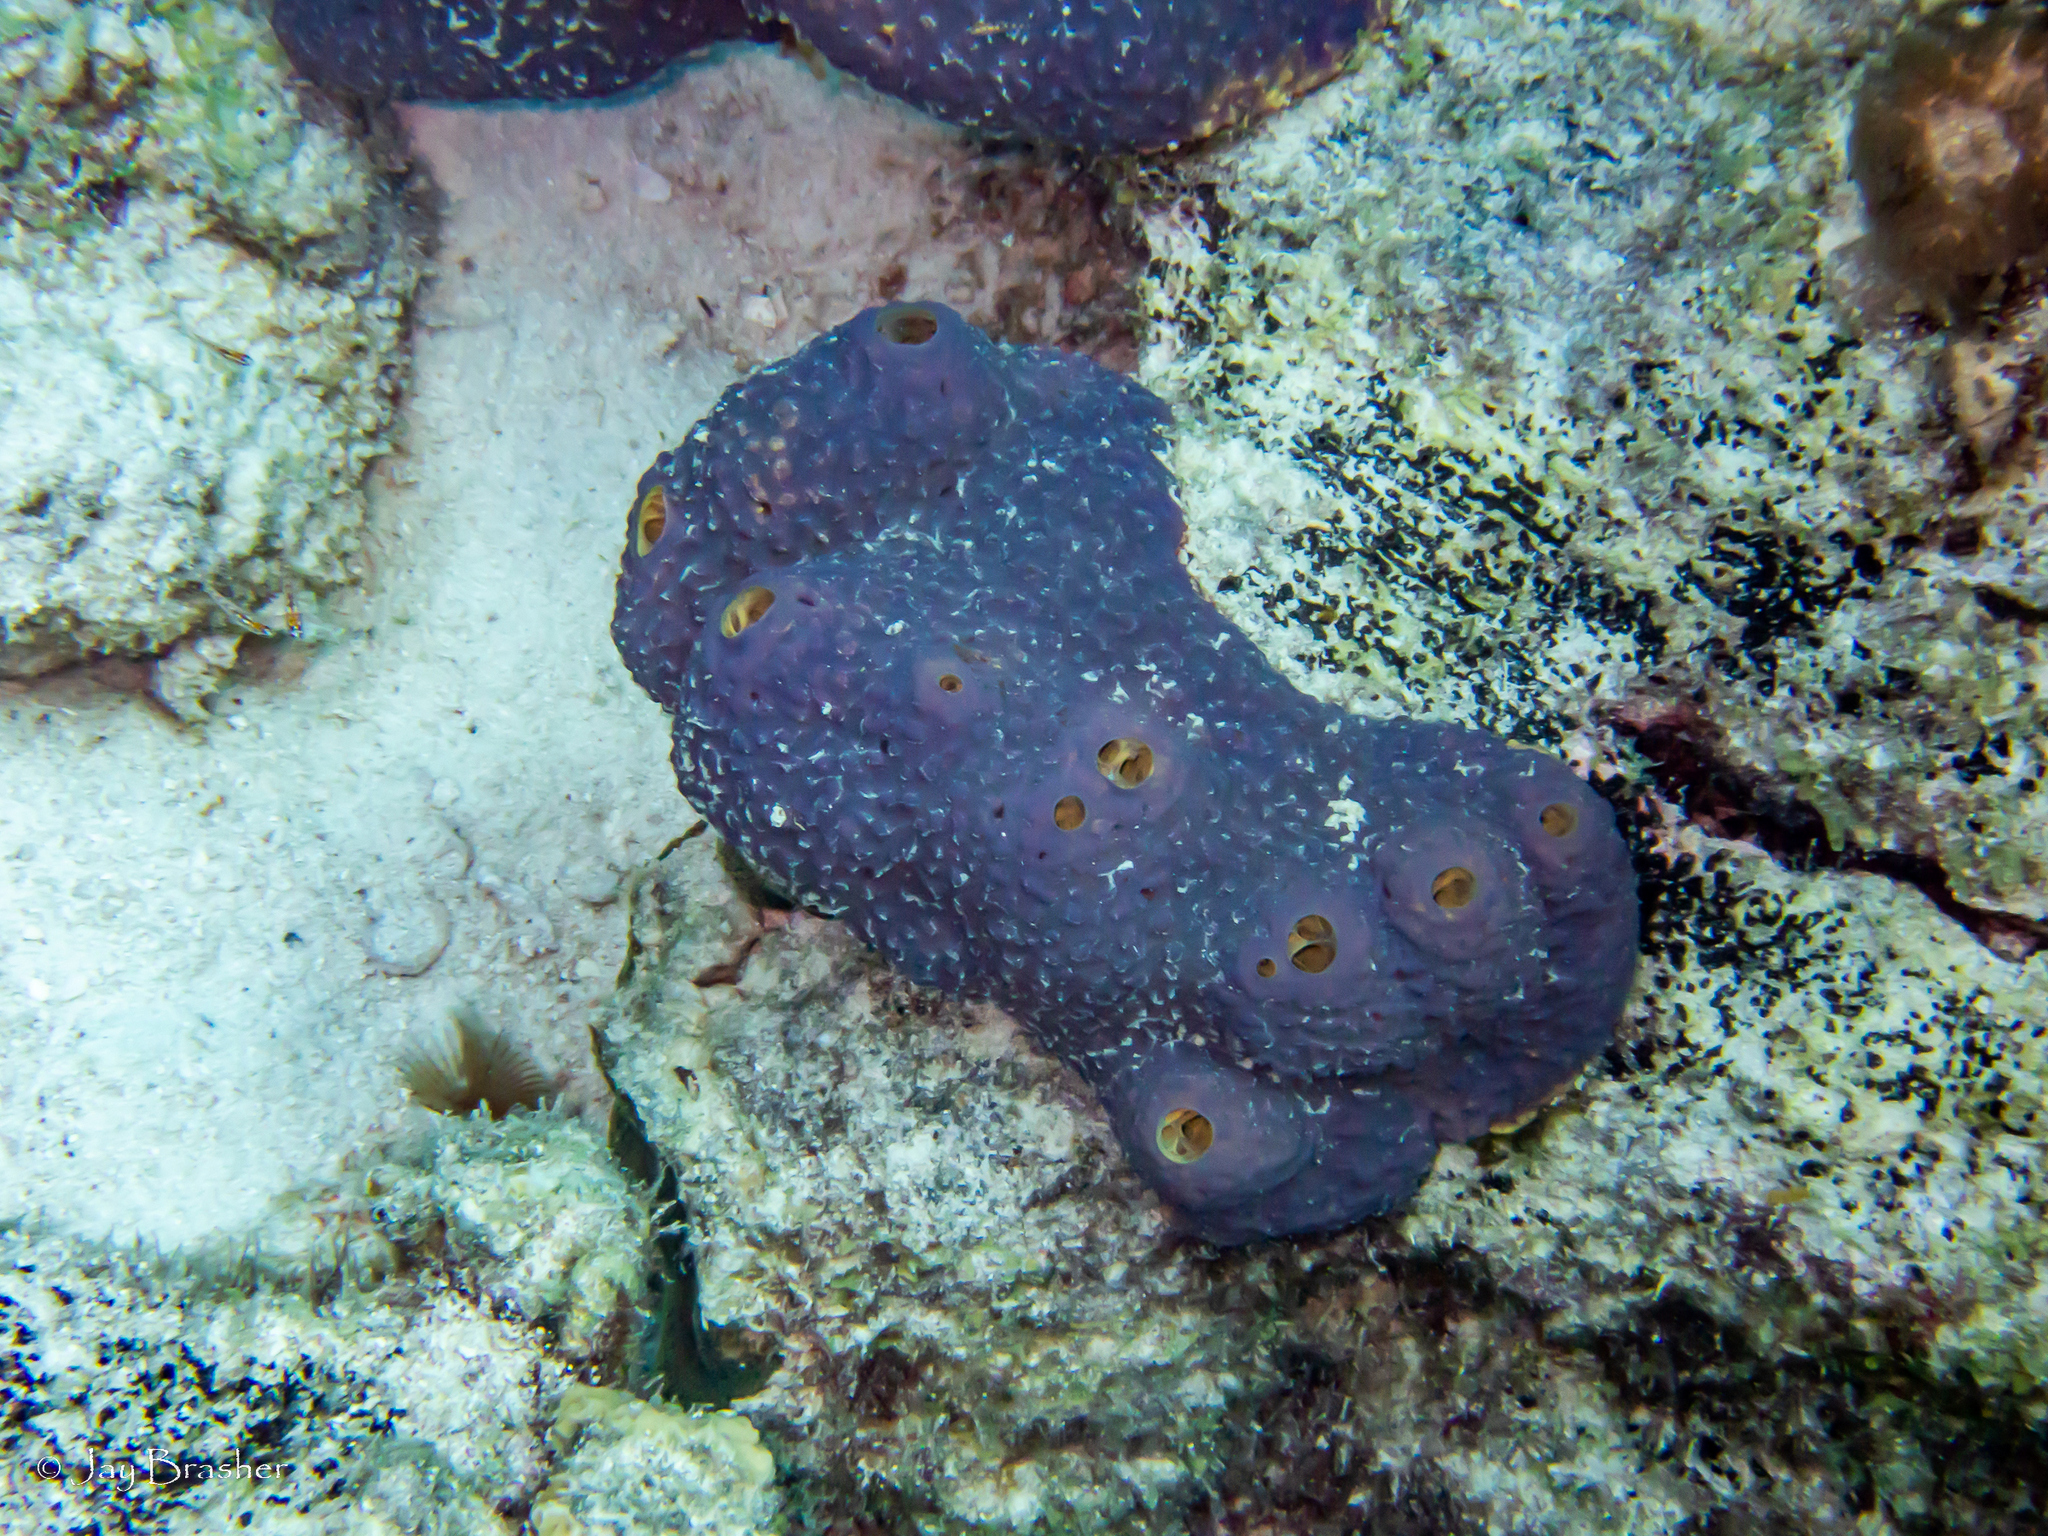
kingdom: Animalia
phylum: Porifera
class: Demospongiae
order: Verongiida
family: Aplysinidae
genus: Aiolochroia
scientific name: Aiolochroia crassa
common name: Branching tube sponge
